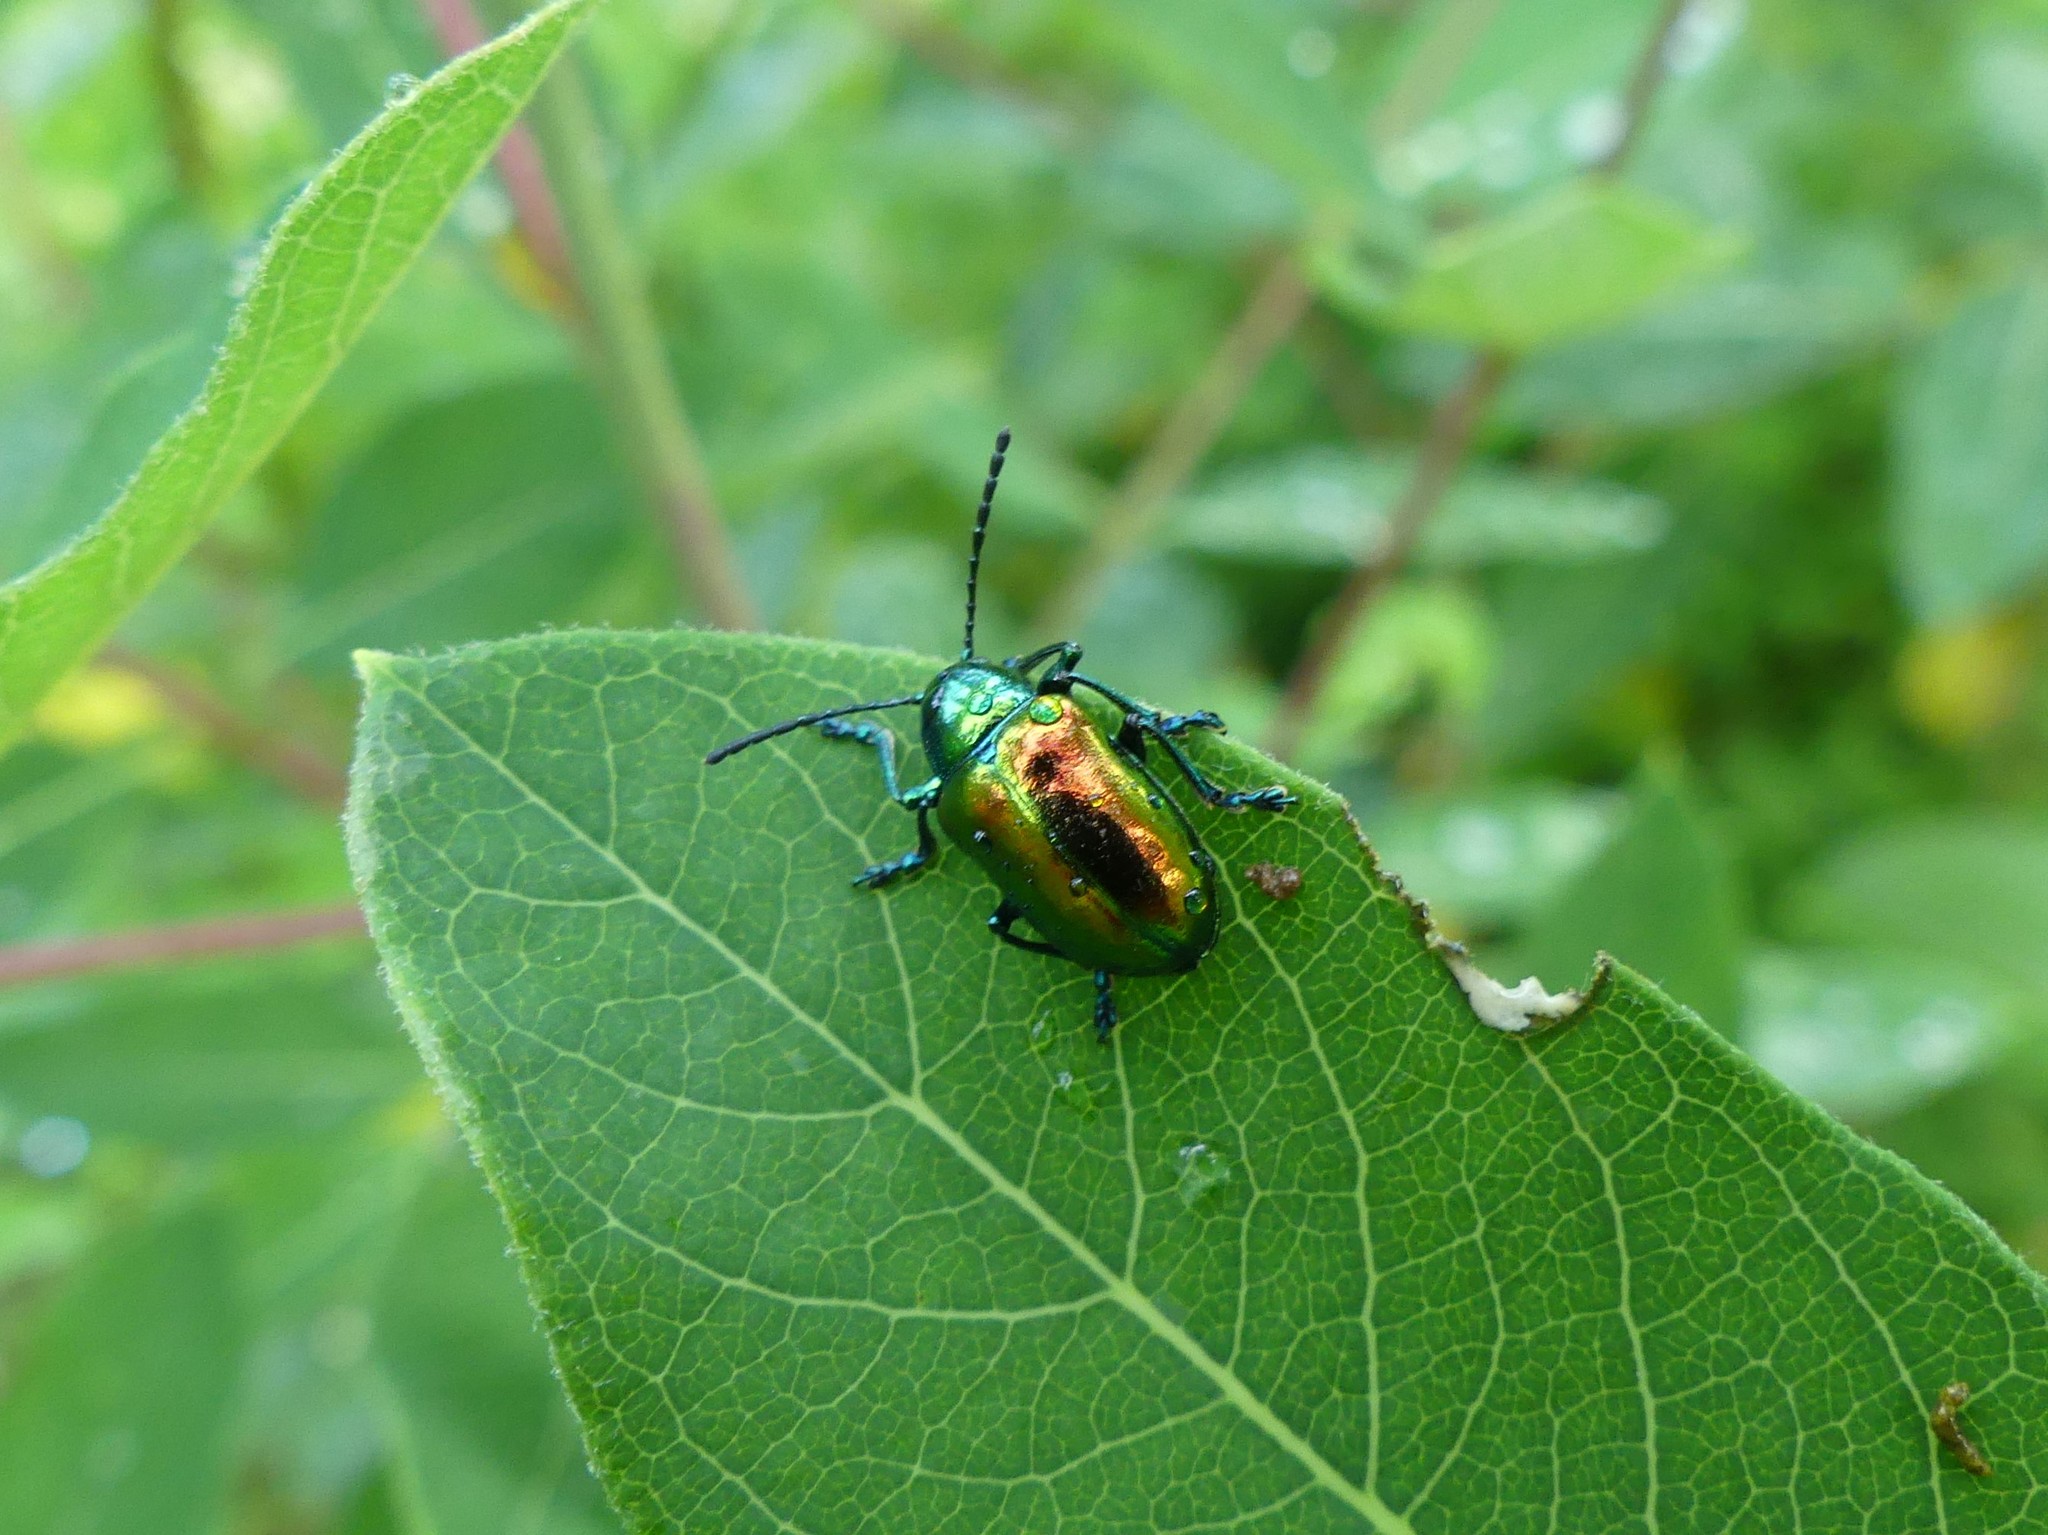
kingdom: Animalia
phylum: Arthropoda
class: Insecta
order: Coleoptera
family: Chrysomelidae
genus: Chrysochus
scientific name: Chrysochus auratus
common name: Dogbane leaf beetle
